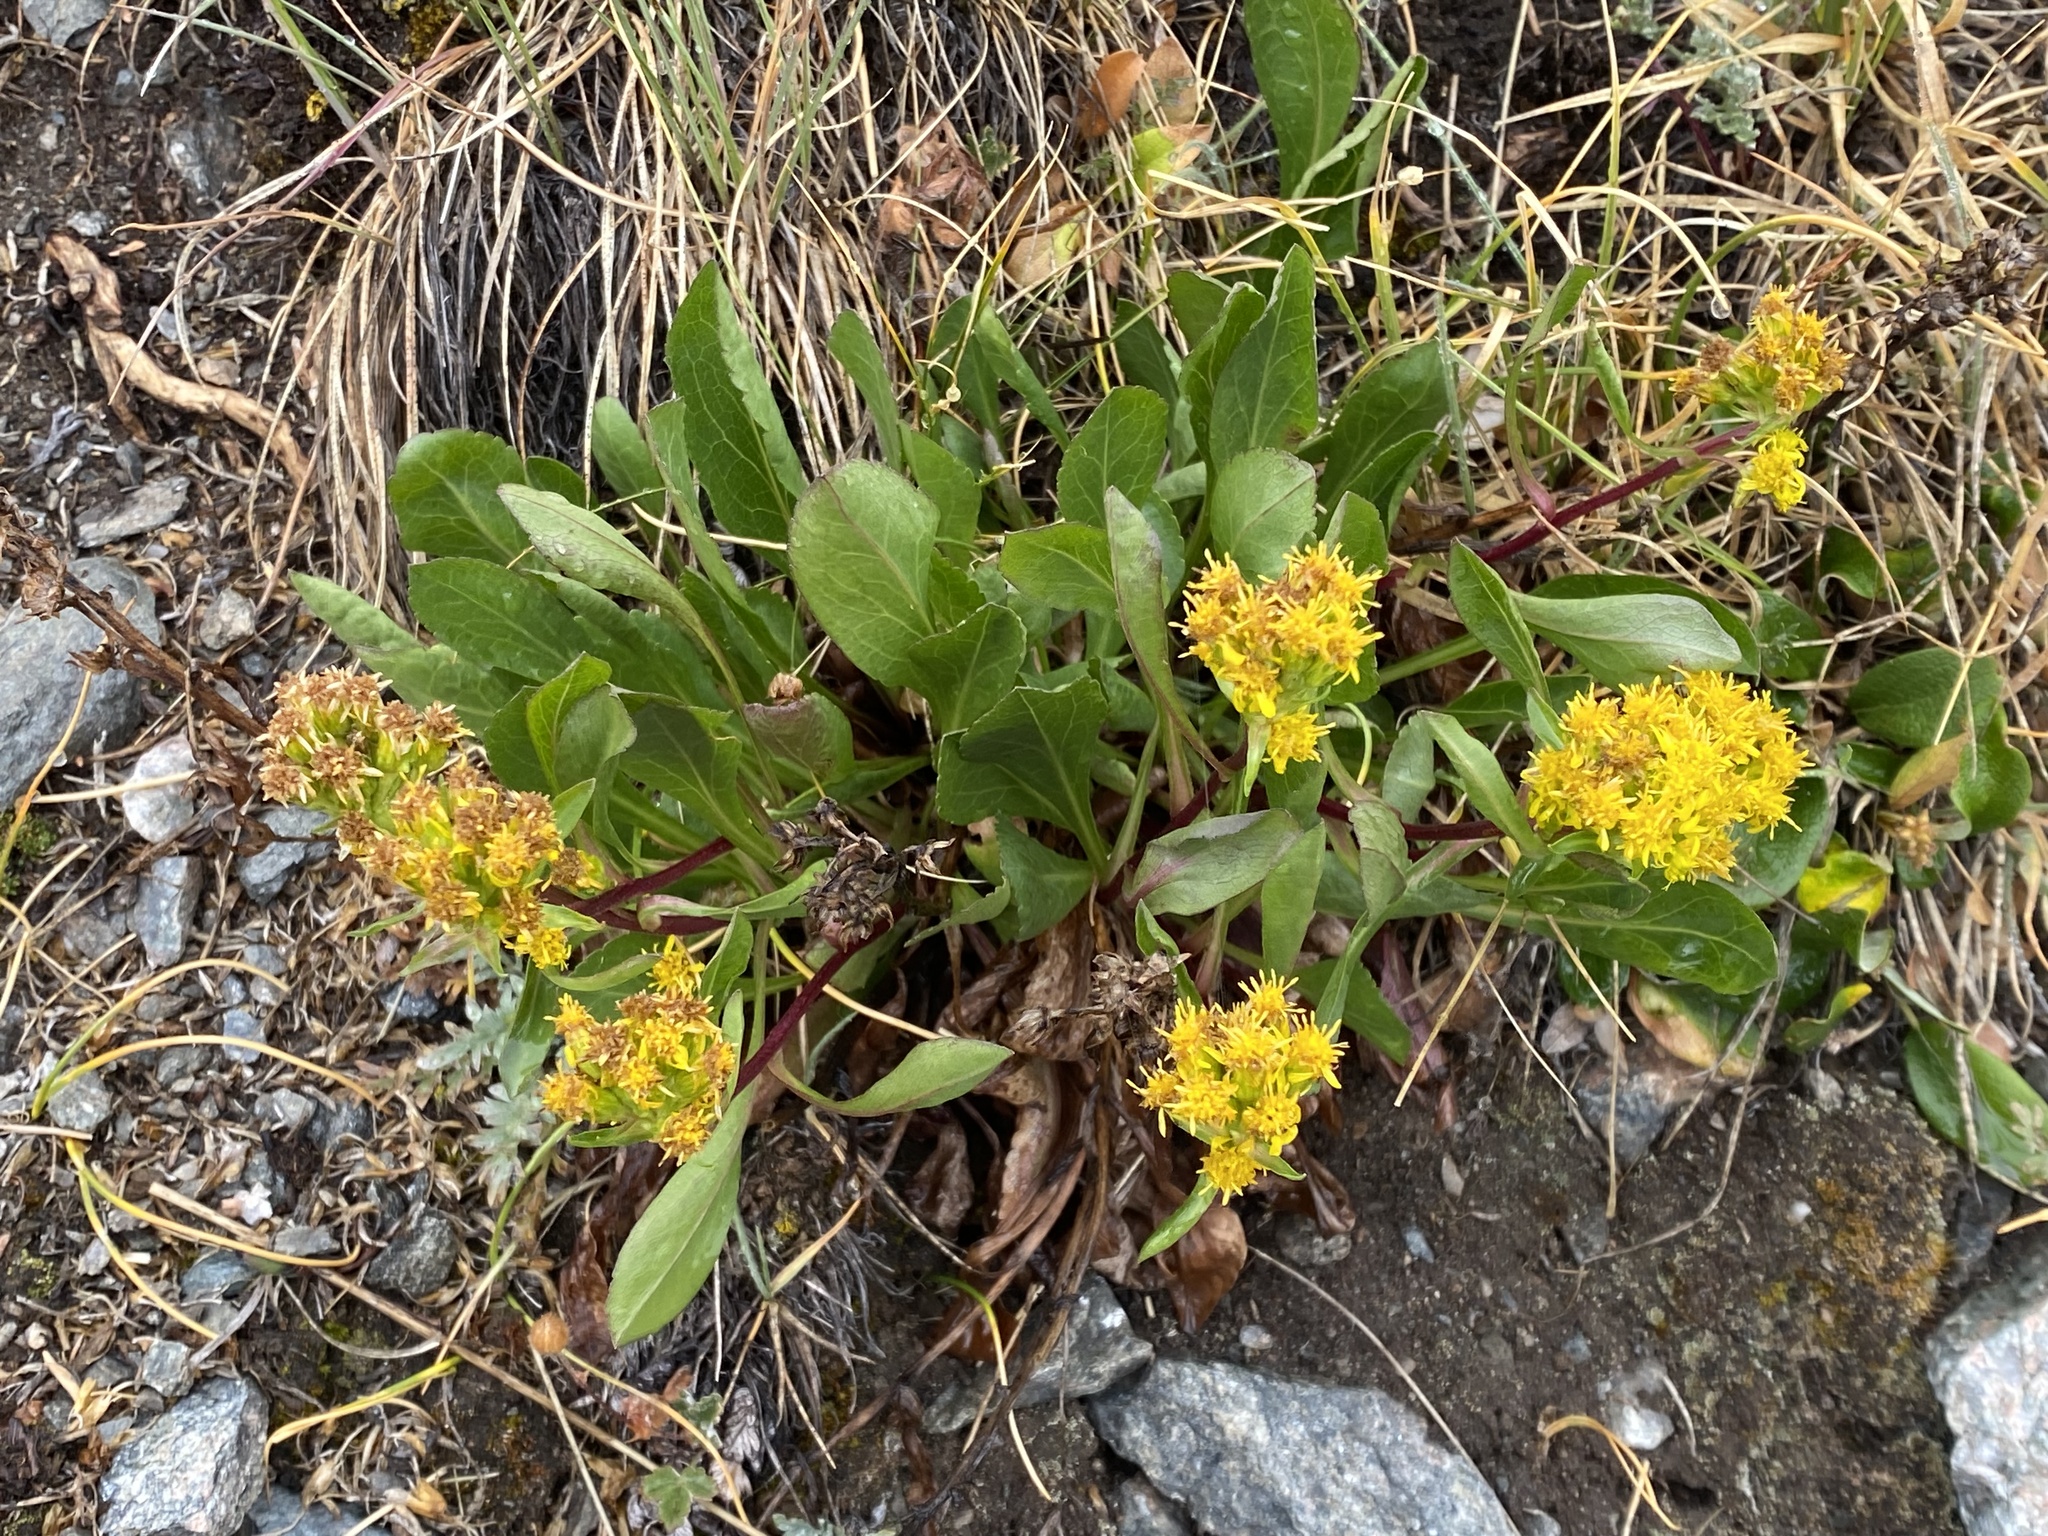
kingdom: Plantae
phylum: Tracheophyta
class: Magnoliopsida
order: Asterales
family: Asteraceae
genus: Solidago
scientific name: Solidago multiradiata
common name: Northern goldenrod
